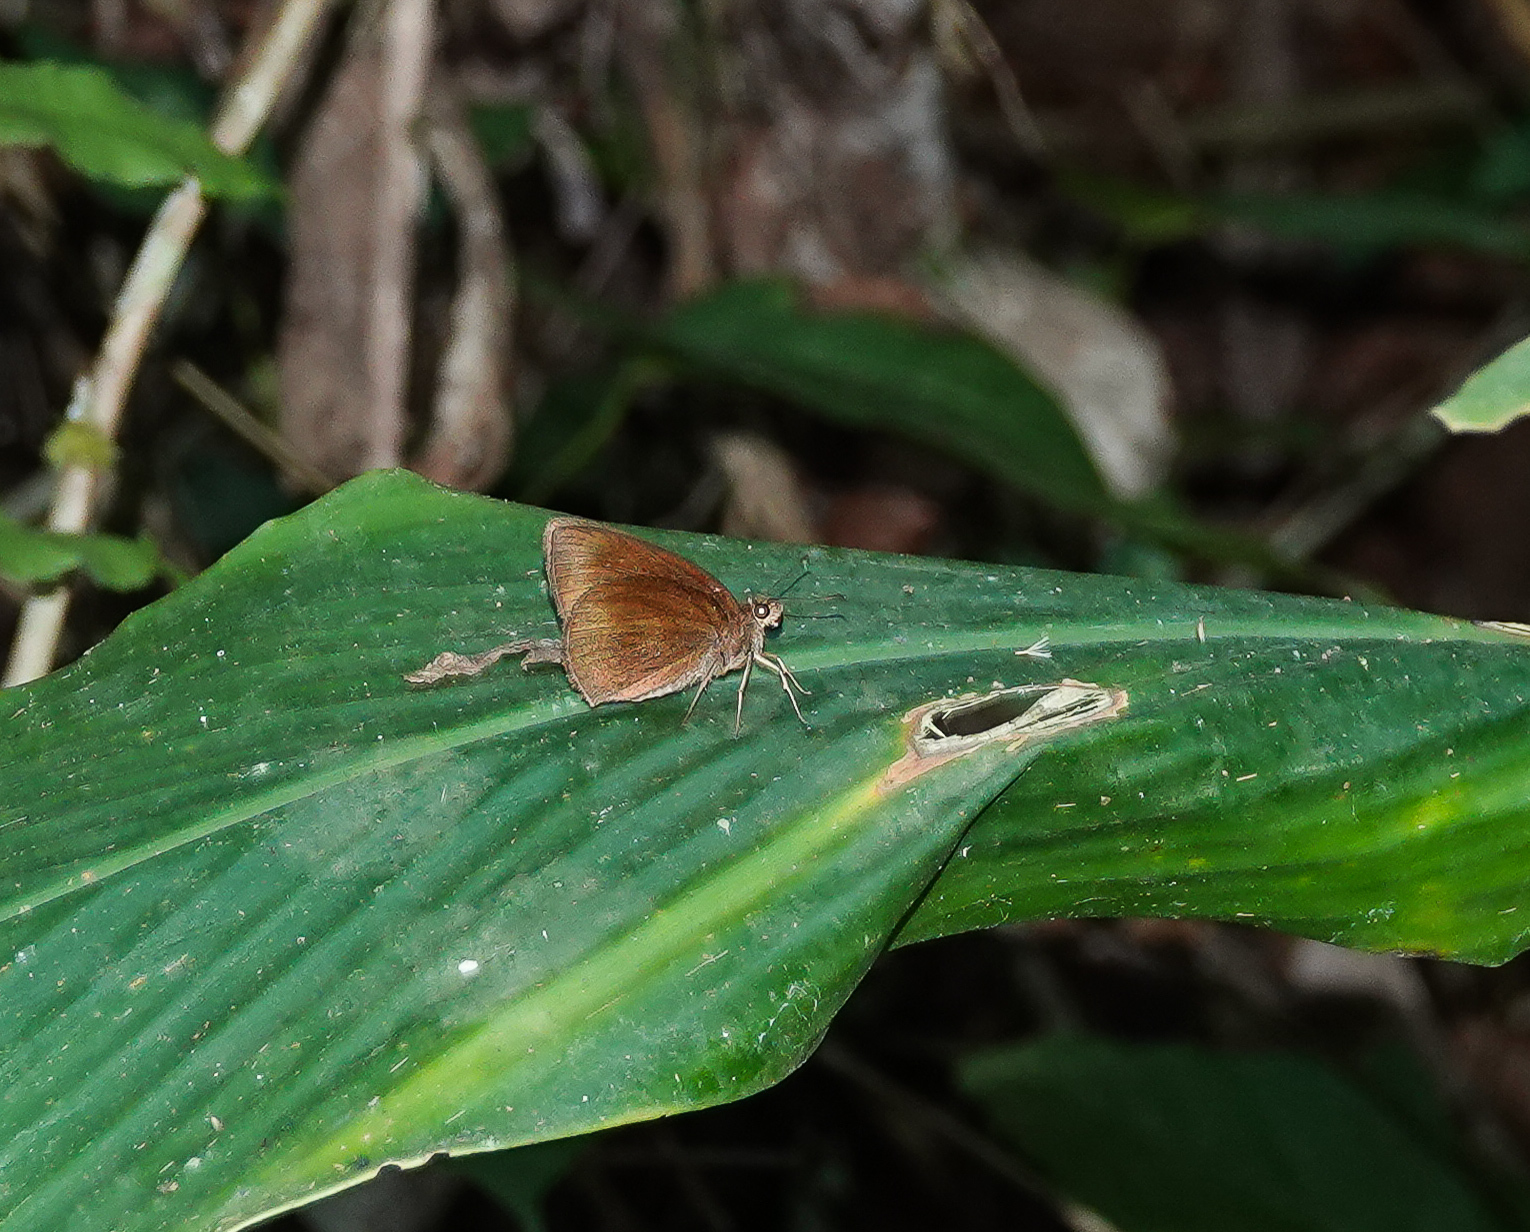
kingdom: Animalia
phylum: Arthropoda
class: Insecta
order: Lepidoptera
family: Hesperiidae
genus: Ancistroides
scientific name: Ancistroides nigrita
